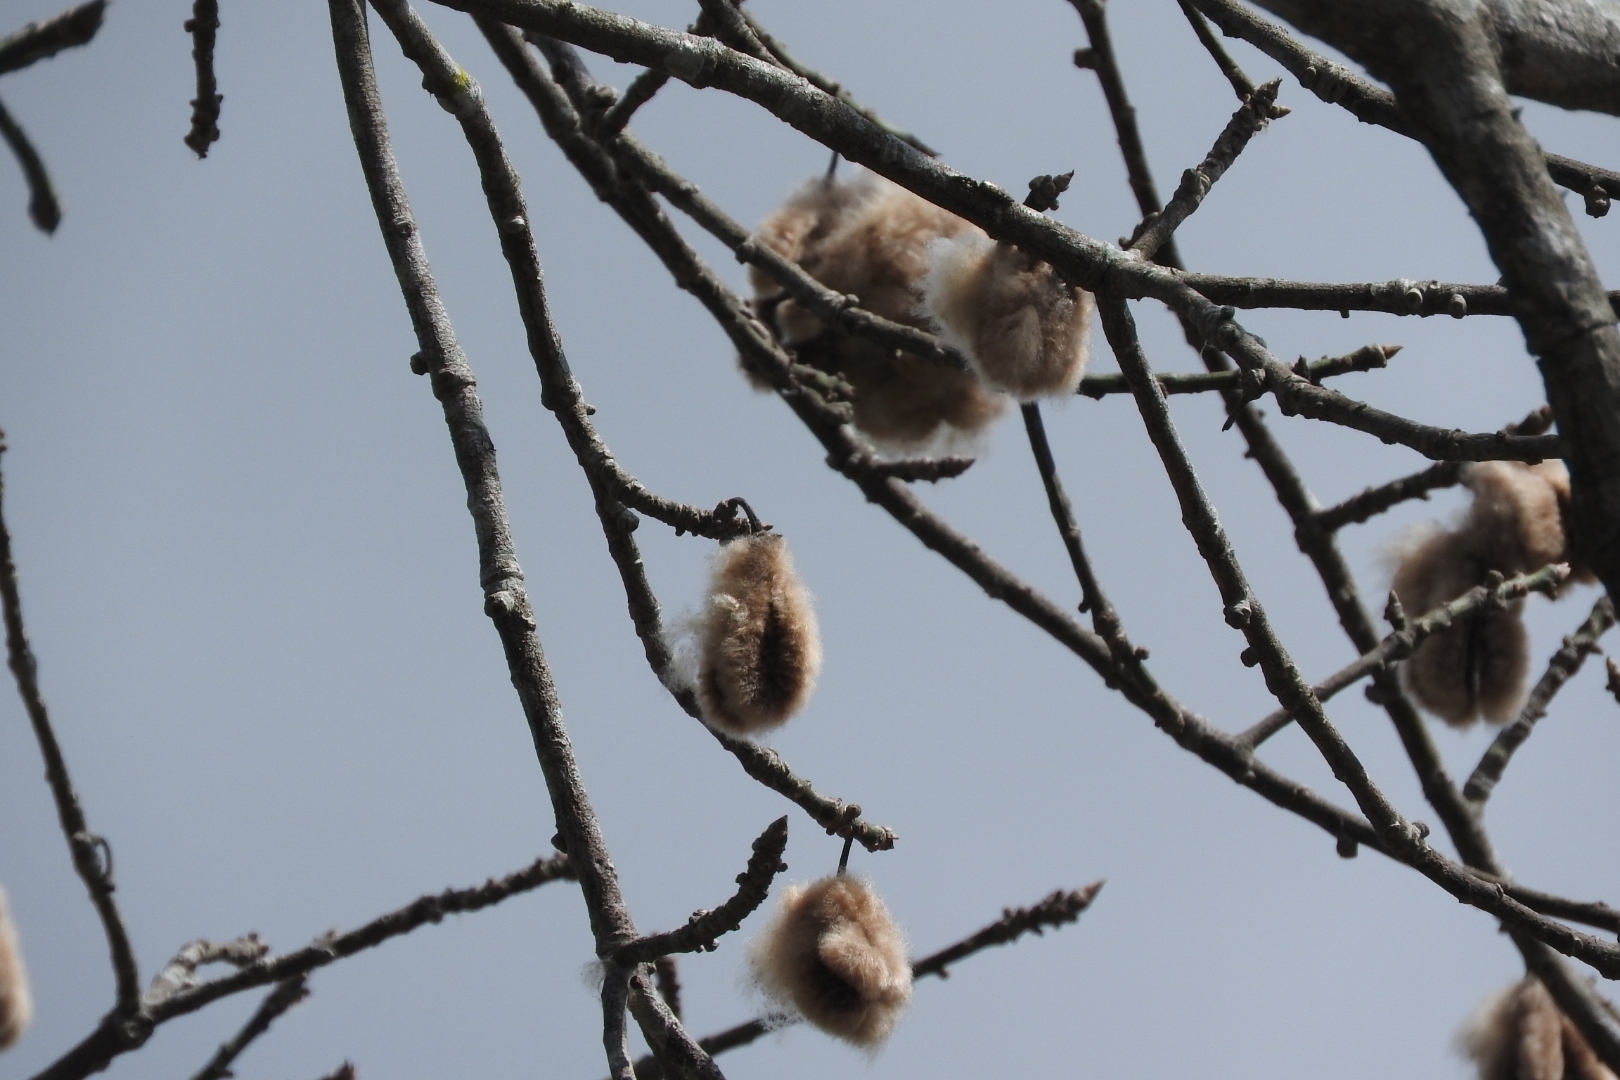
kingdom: Plantae
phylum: Tracheophyta
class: Magnoliopsida
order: Malvales
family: Malvaceae
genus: Ceiba
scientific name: Ceiba pentandra
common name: Kapok
